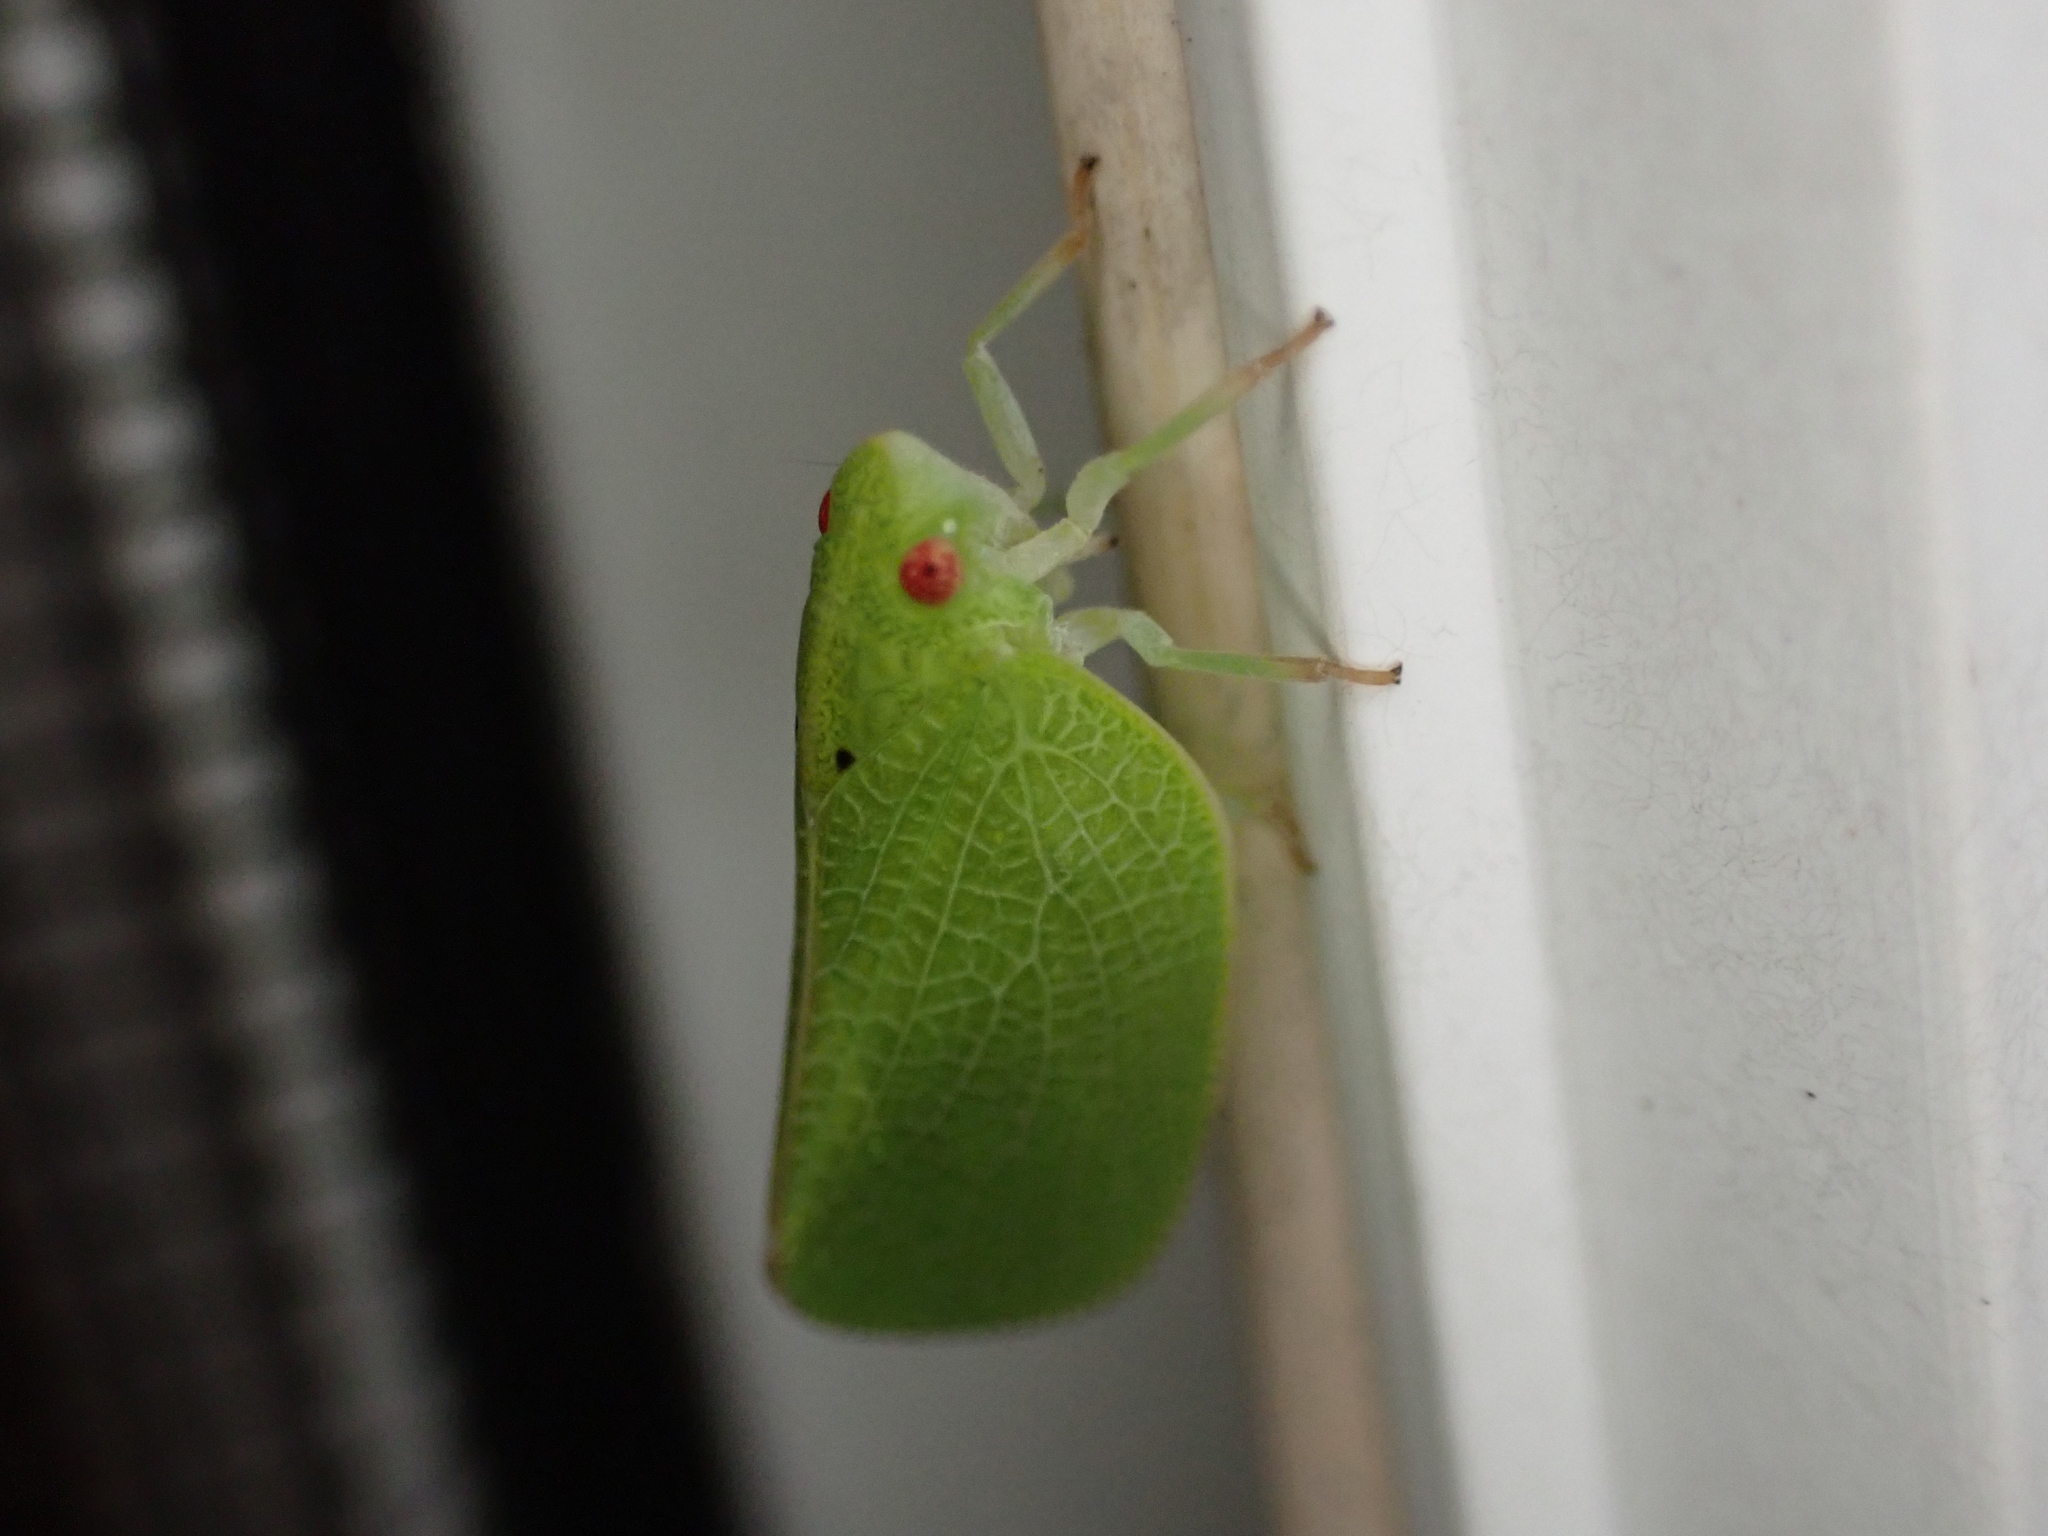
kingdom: Animalia
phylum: Arthropoda
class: Insecta
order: Hemiptera
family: Acanaloniidae
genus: Acanalonia
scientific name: Acanalonia conica
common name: Green cone-headed planthopper
